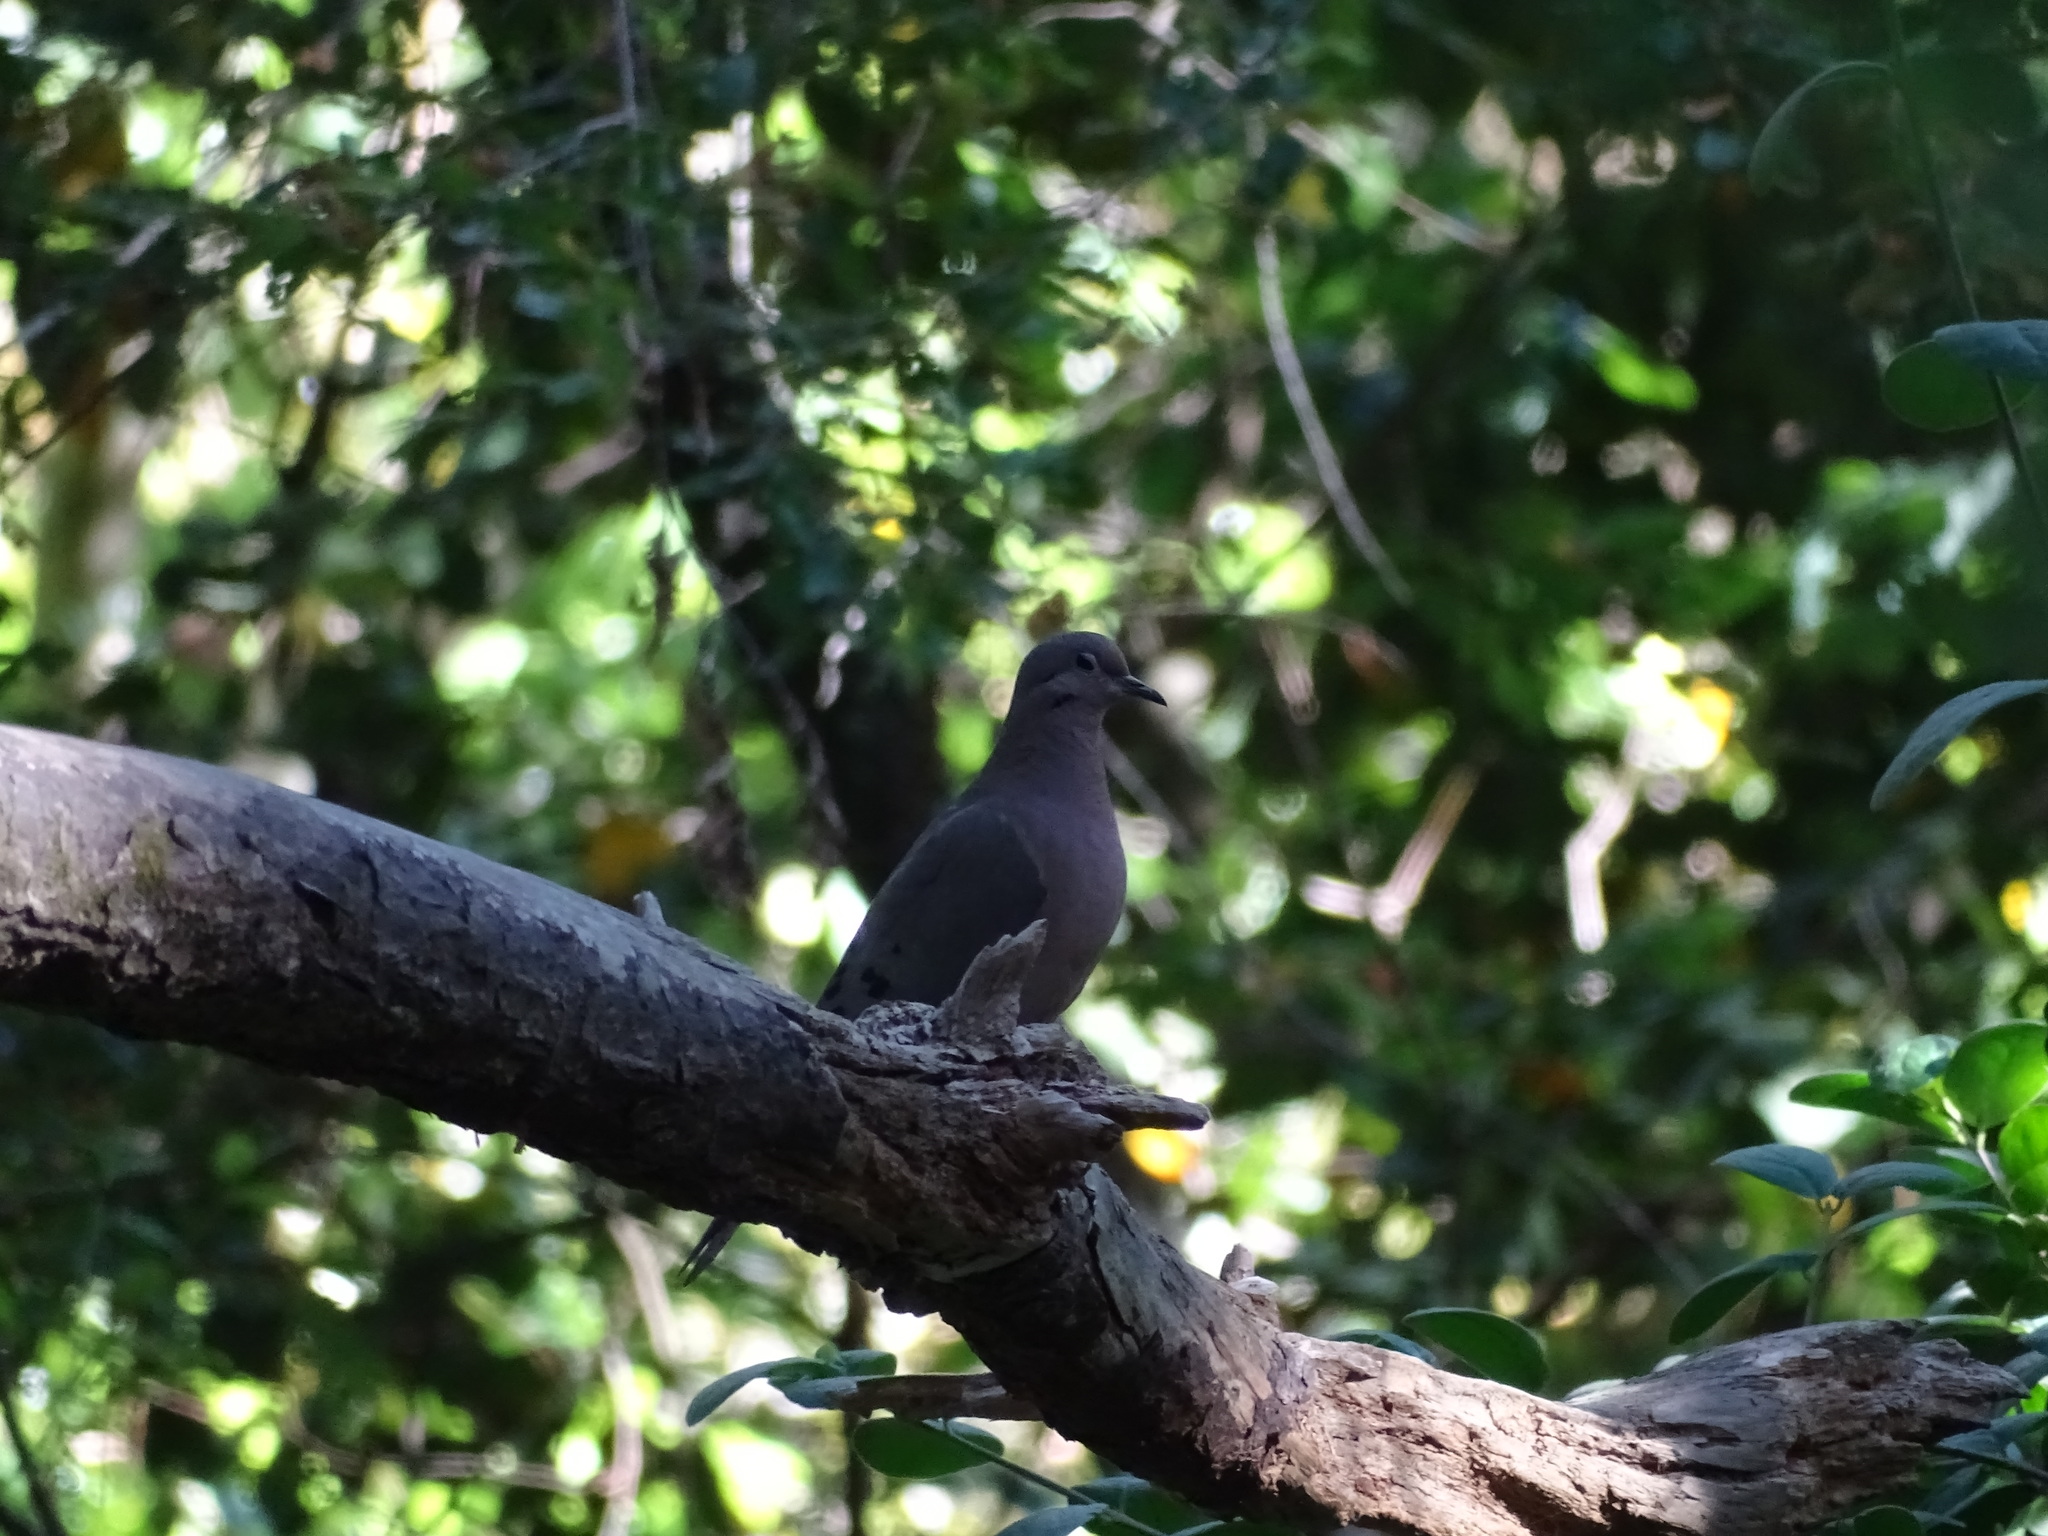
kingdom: Animalia
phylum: Chordata
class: Aves
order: Columbiformes
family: Columbidae
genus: Zenaida
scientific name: Zenaida auriculata
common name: Eared dove
